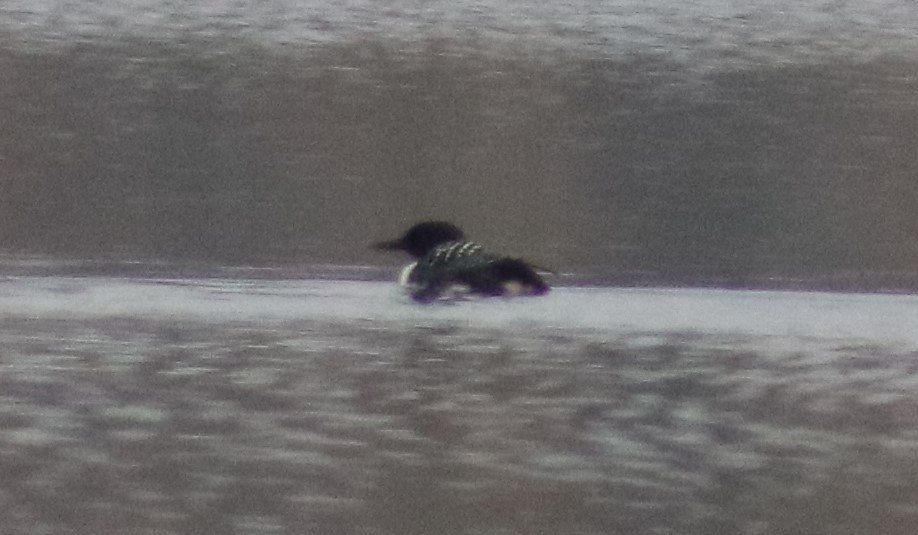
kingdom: Animalia
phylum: Chordata
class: Aves
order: Gaviiformes
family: Gaviidae
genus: Gavia
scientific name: Gavia immer
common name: Common loon
